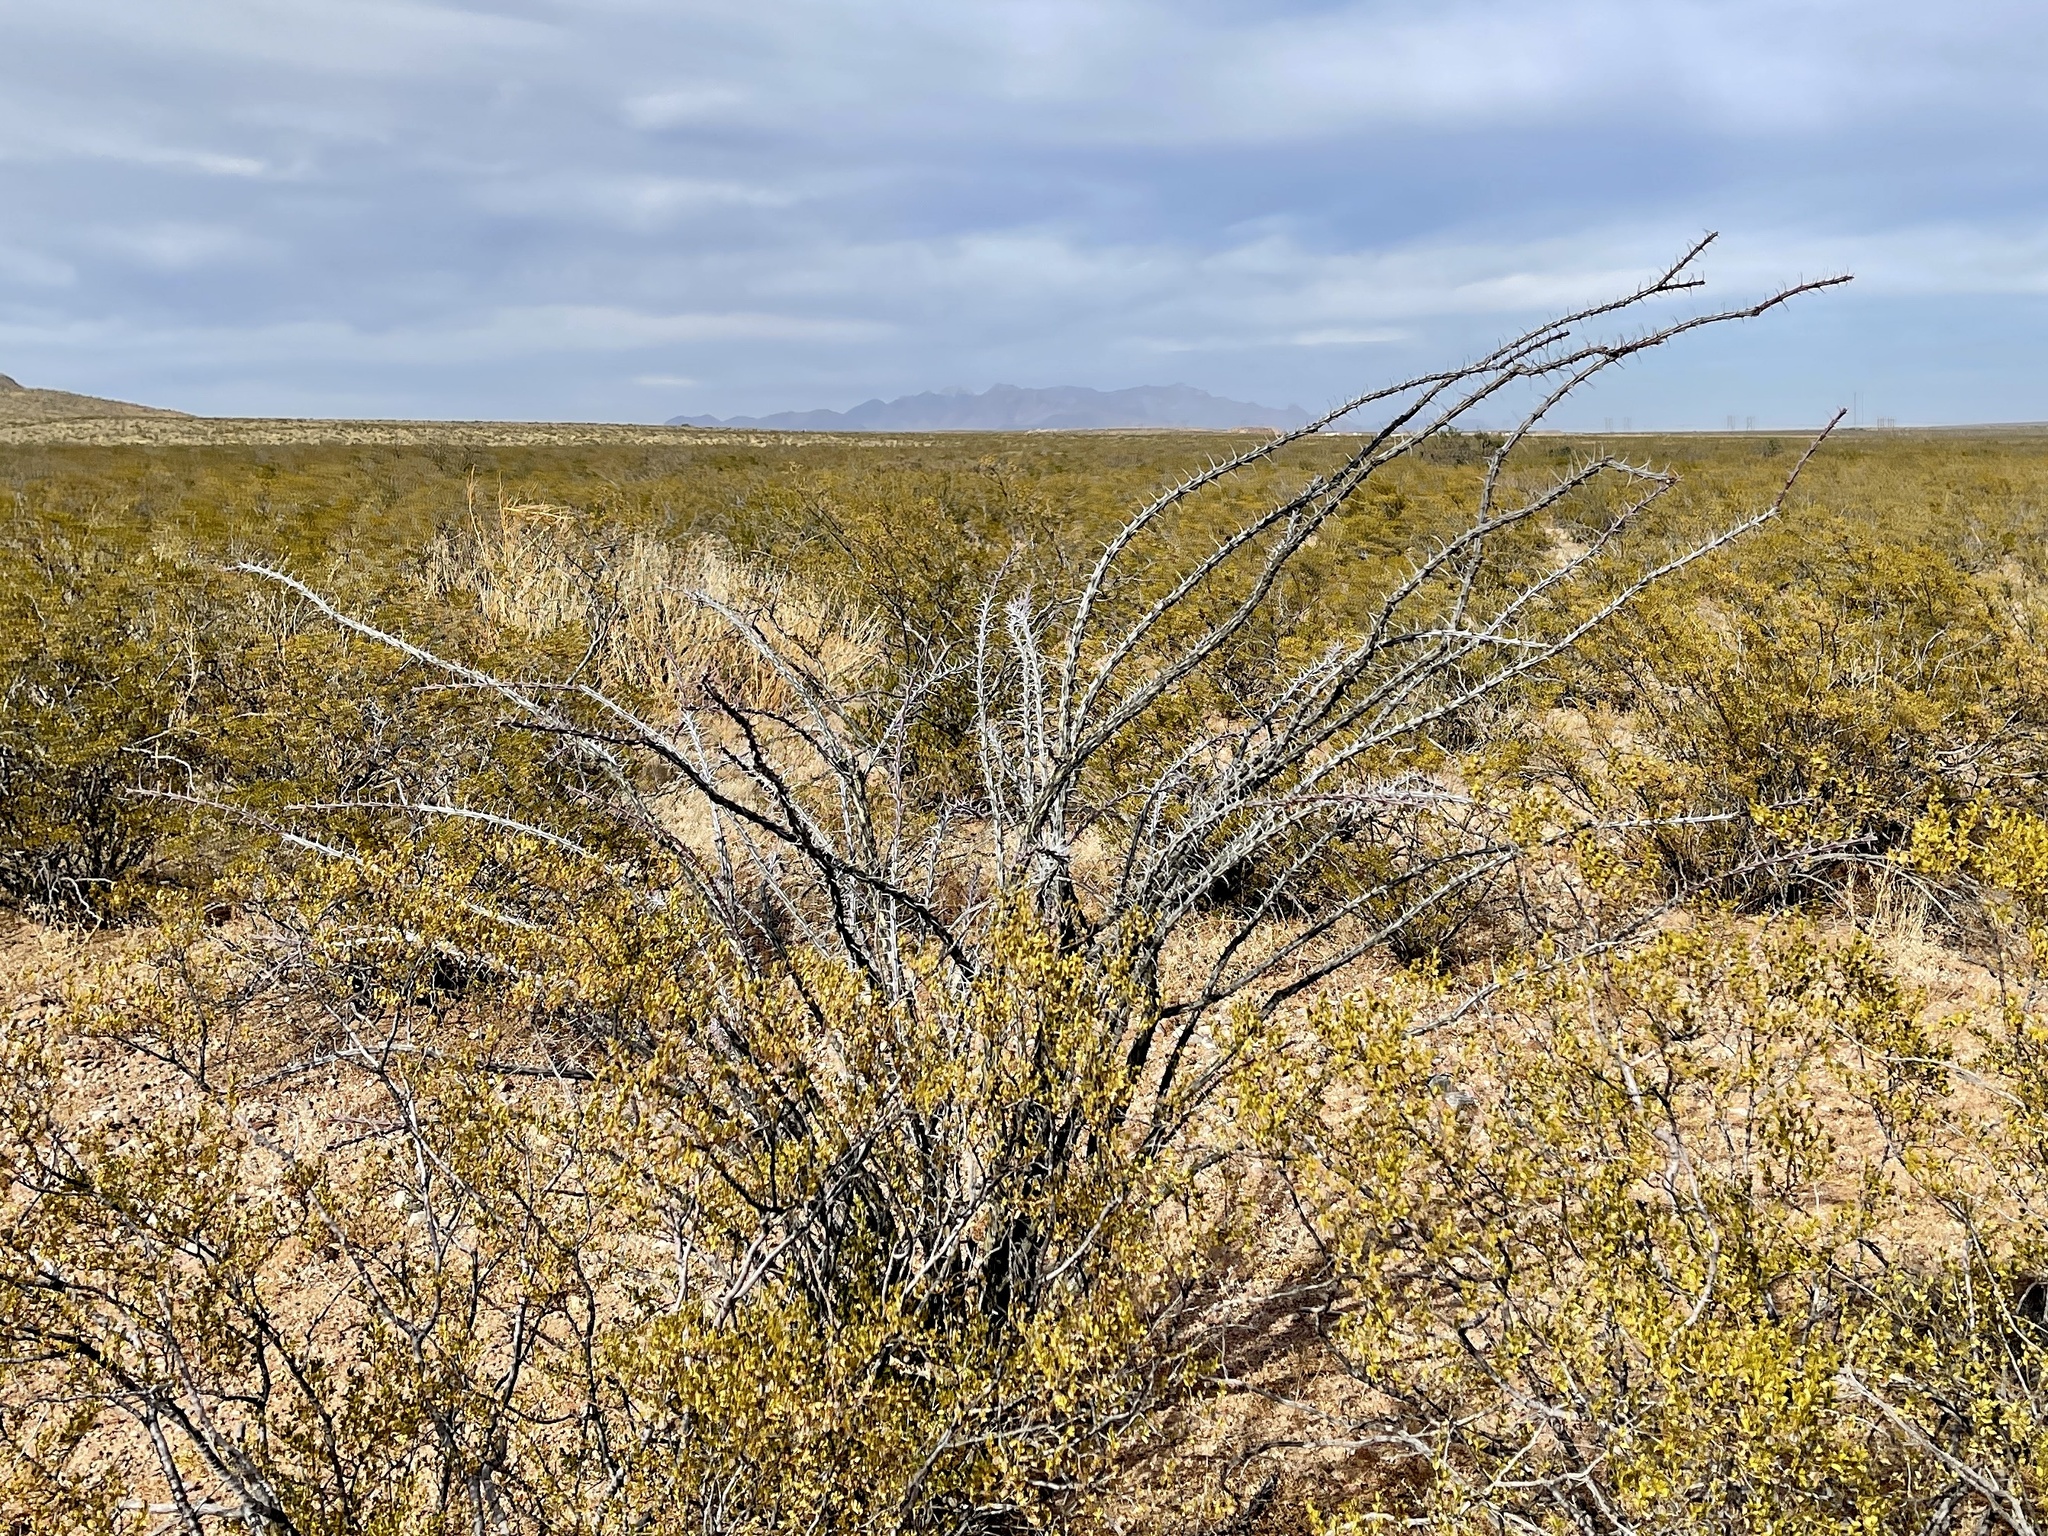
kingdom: Plantae
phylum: Tracheophyta
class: Magnoliopsida
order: Ericales
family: Fouquieriaceae
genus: Fouquieria
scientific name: Fouquieria splendens
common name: Vine-cactus
